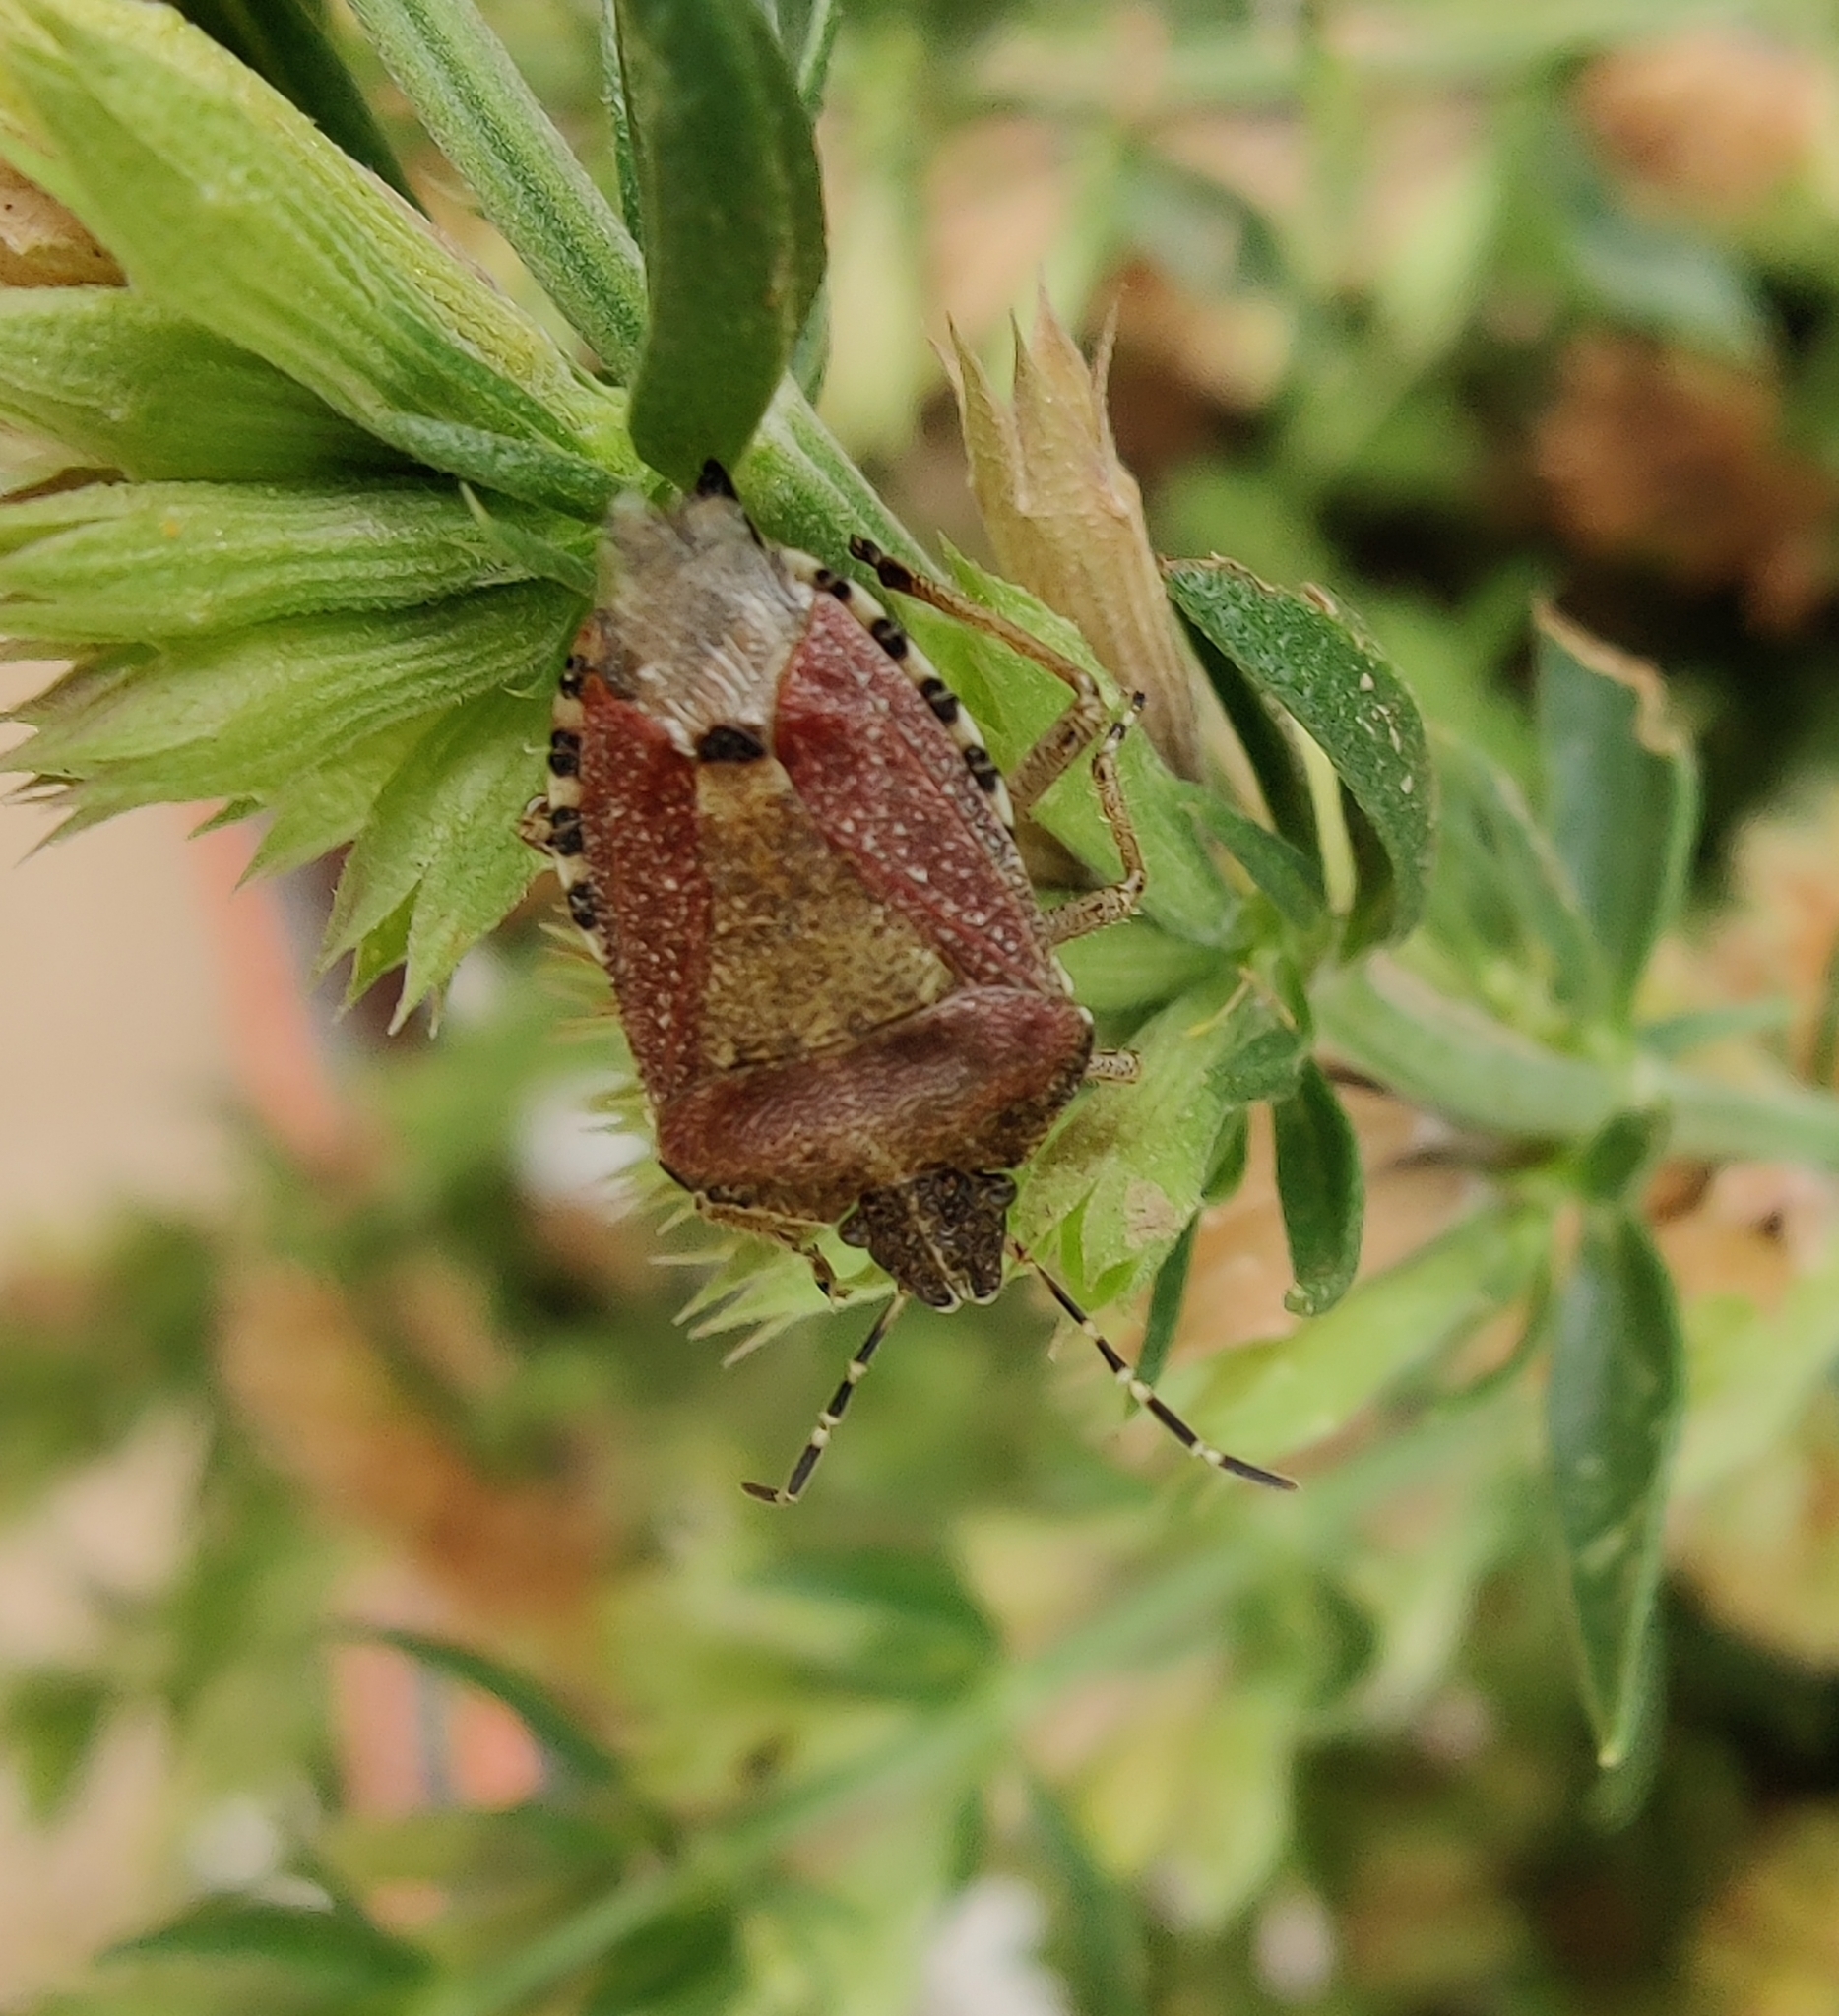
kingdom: Animalia
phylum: Arthropoda
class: Insecta
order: Hemiptera
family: Pentatomidae
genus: Dolycoris
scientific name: Dolycoris baccarum
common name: Sloe bug
